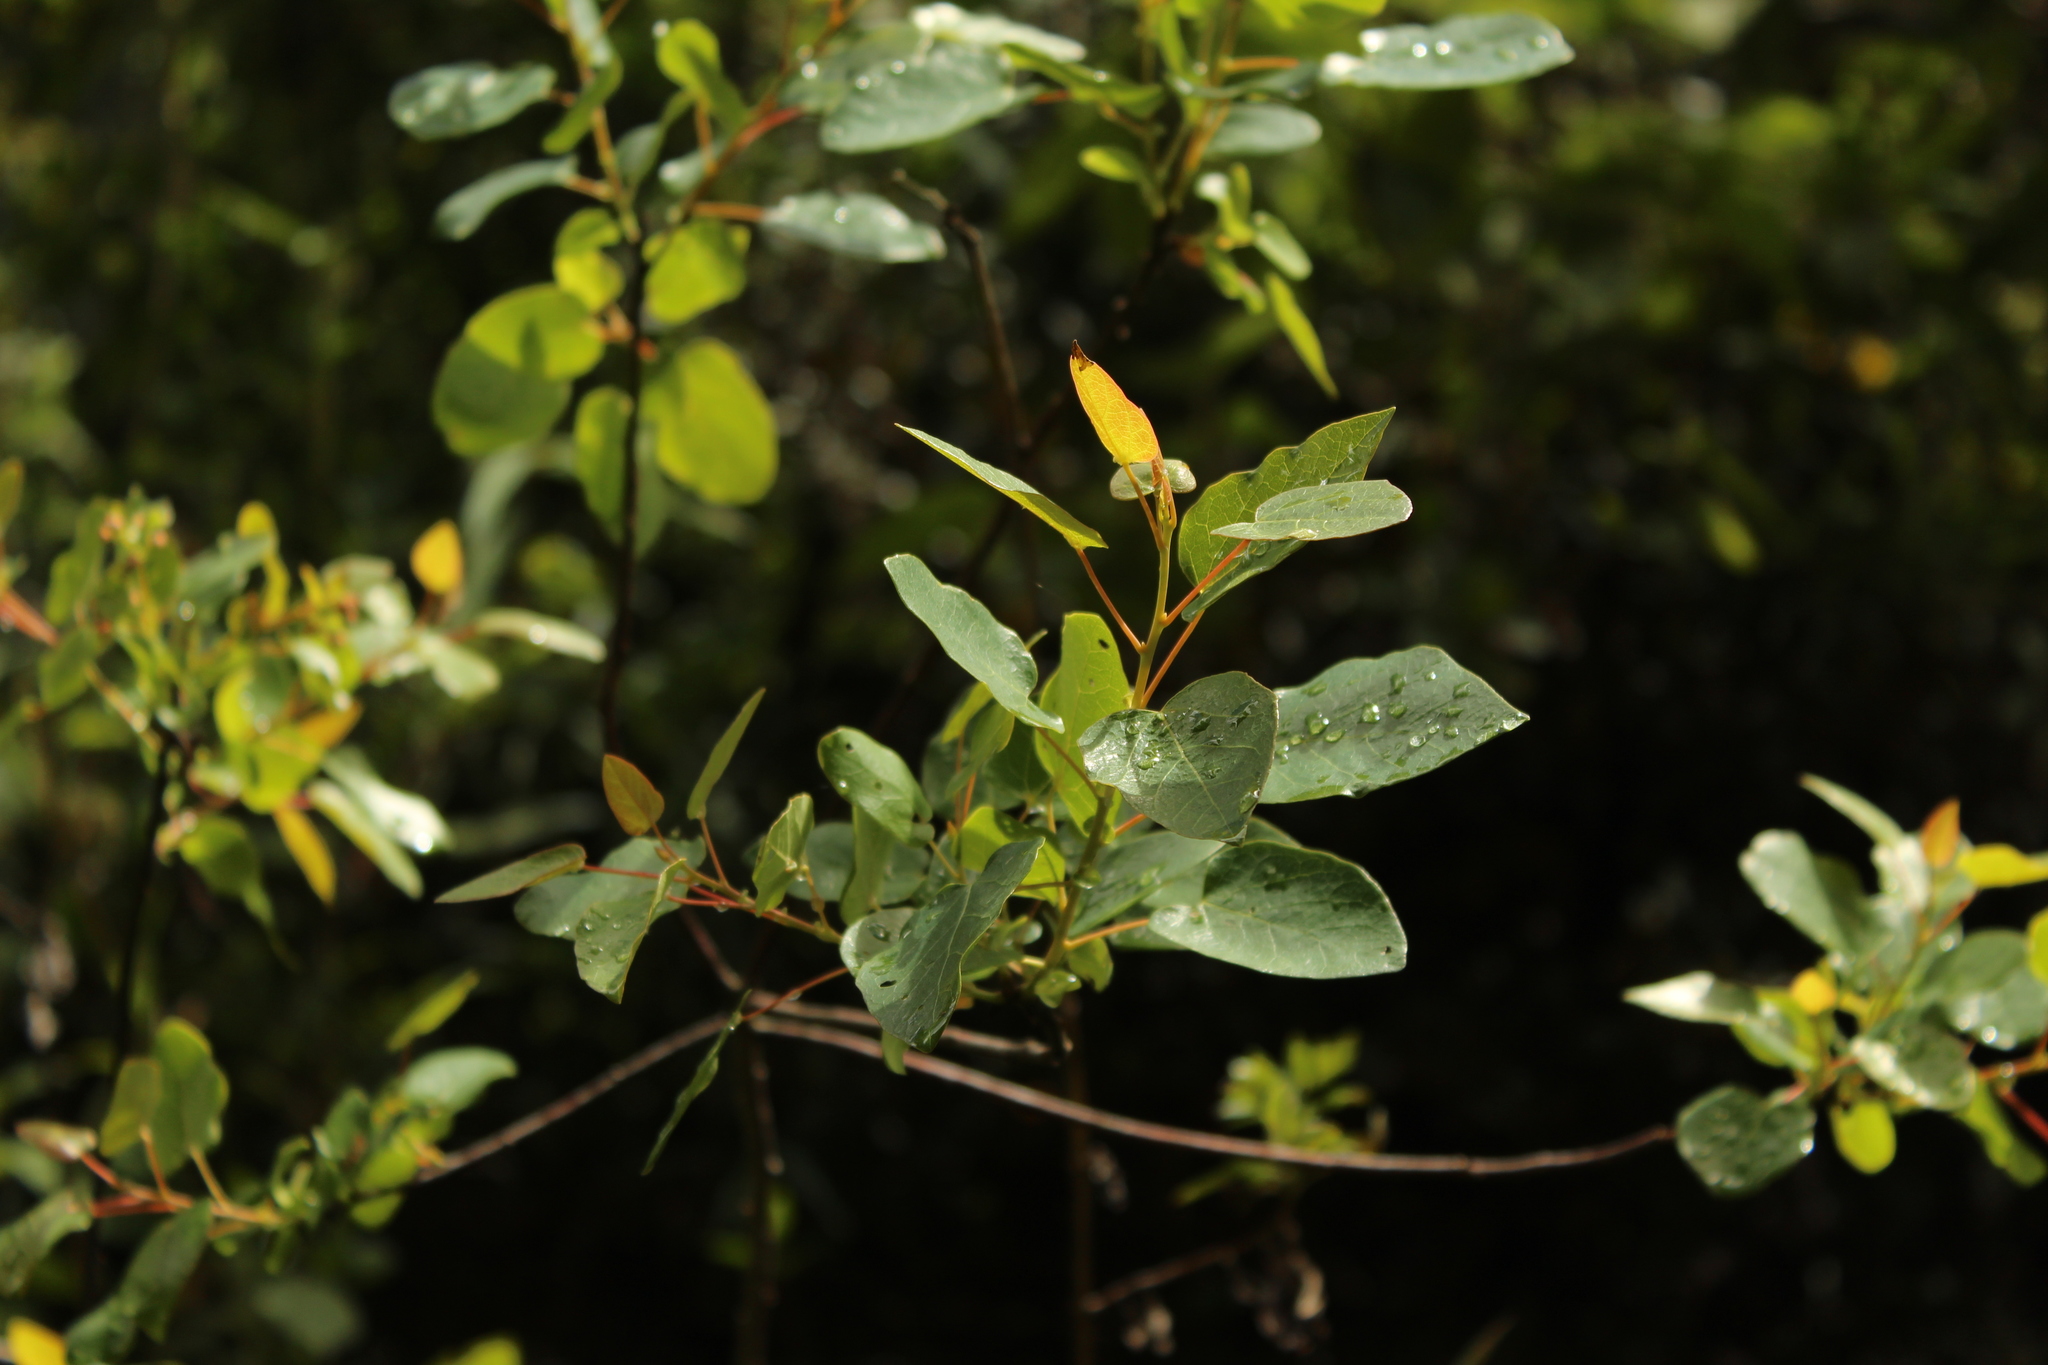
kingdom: Plantae
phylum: Tracheophyta
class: Magnoliopsida
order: Oxalidales
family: Elaeocarpaceae
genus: Vallea
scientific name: Vallea stipularis
